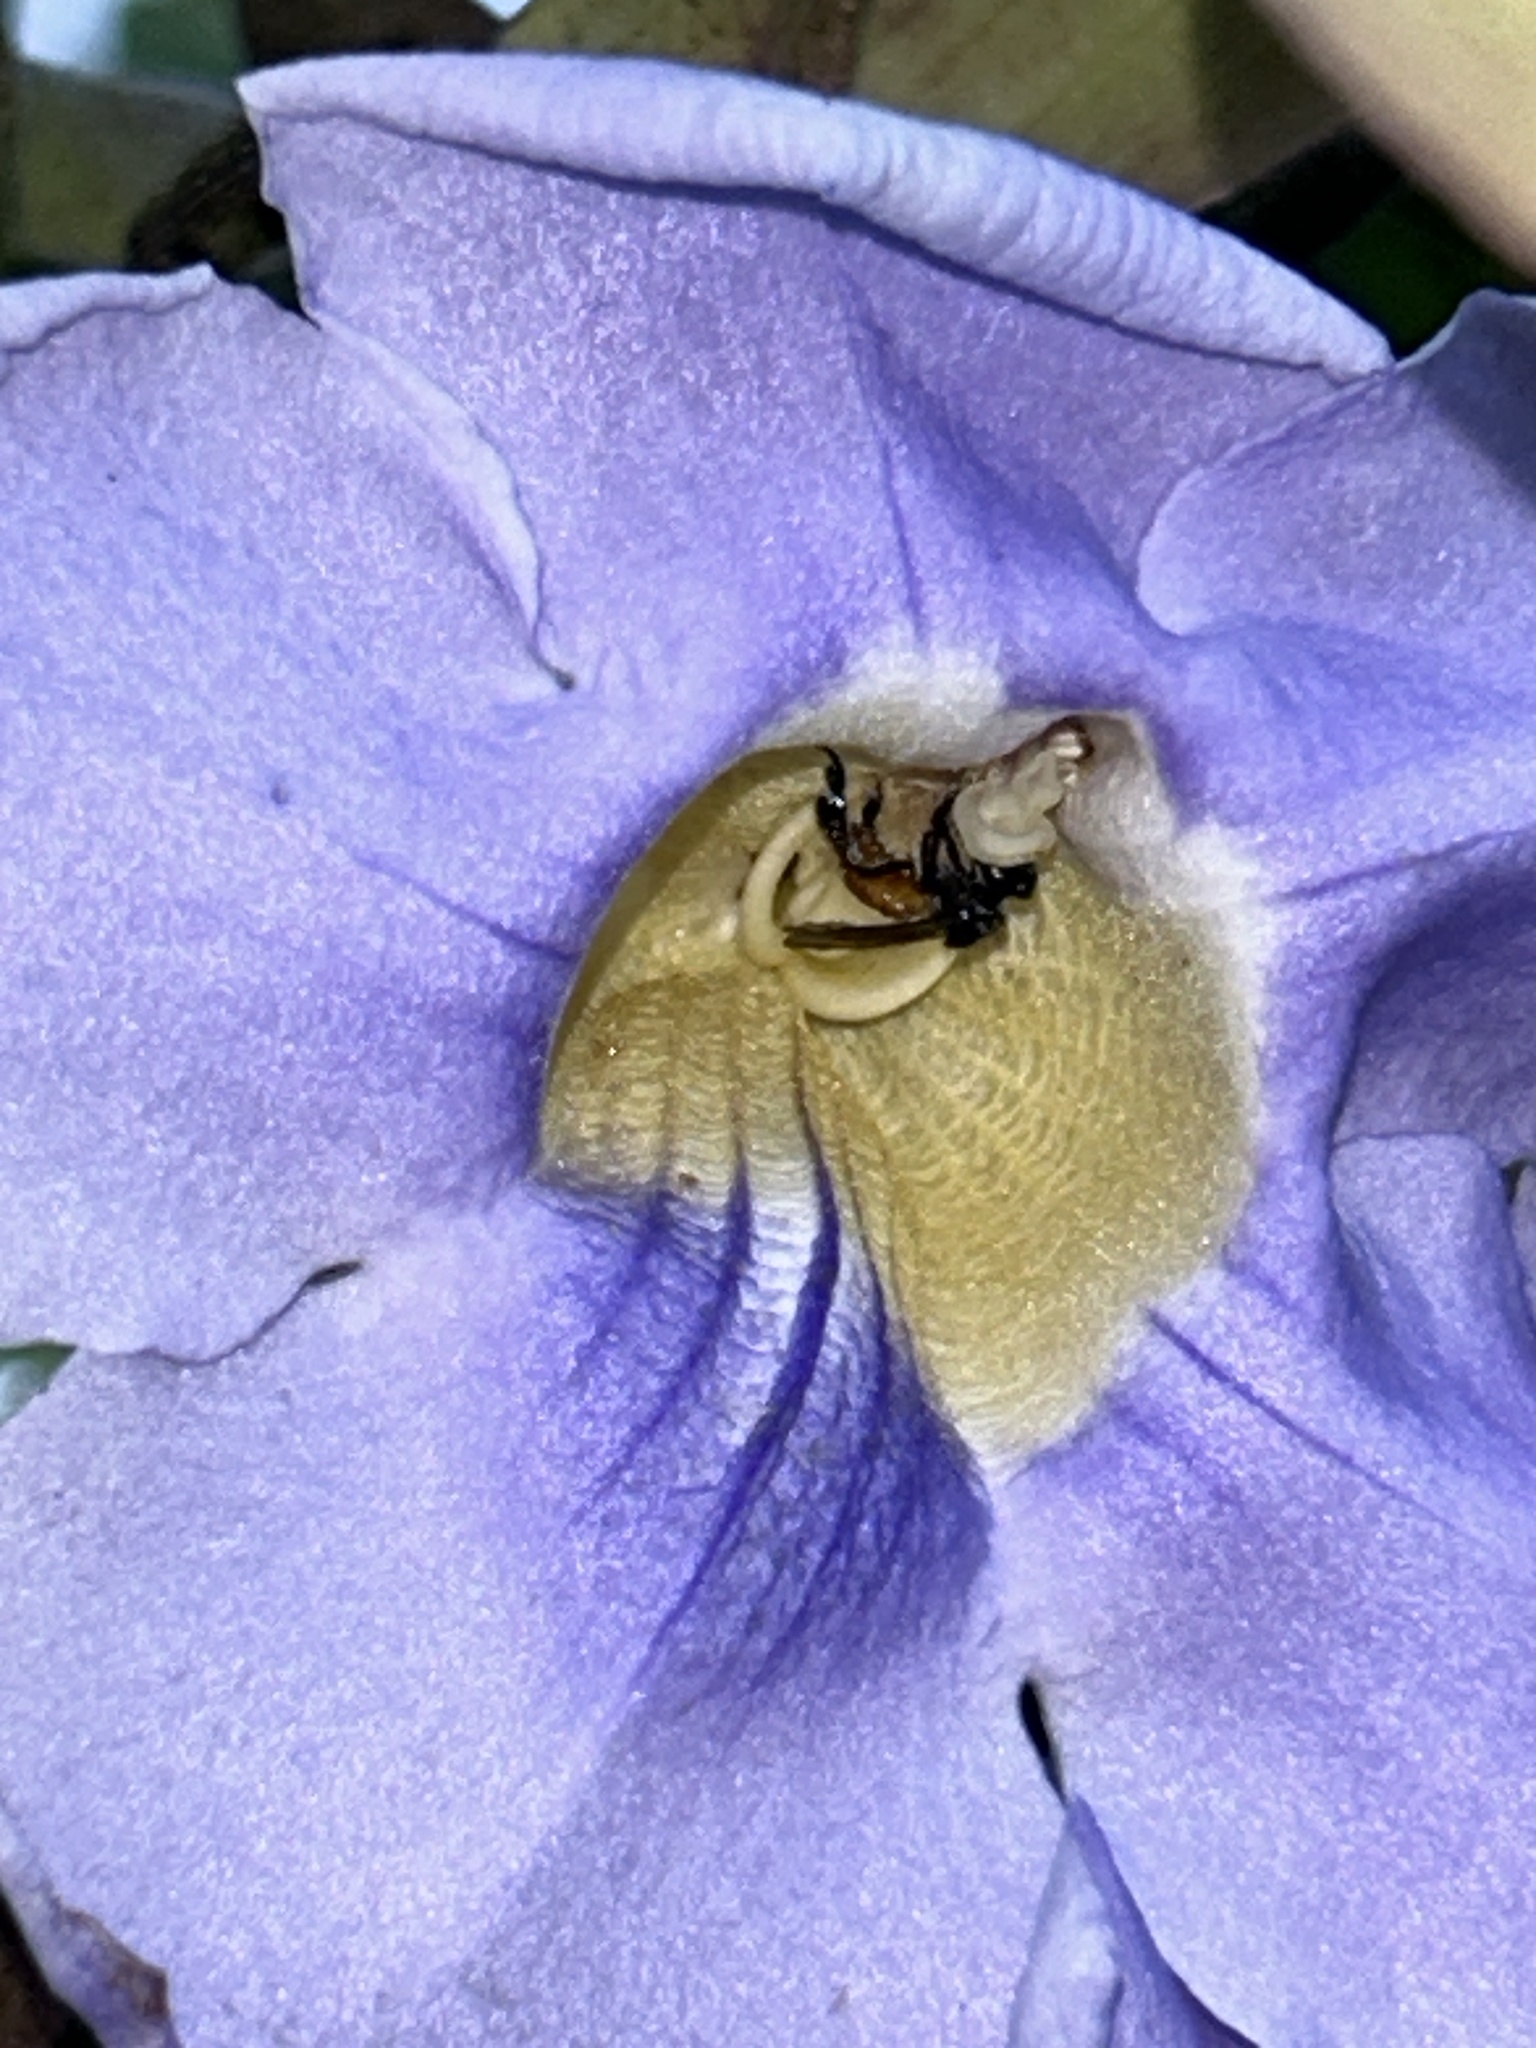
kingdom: Animalia
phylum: Arthropoda
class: Insecta
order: Hymenoptera
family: Apidae
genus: Trigona
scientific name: Trigona fulviventris
